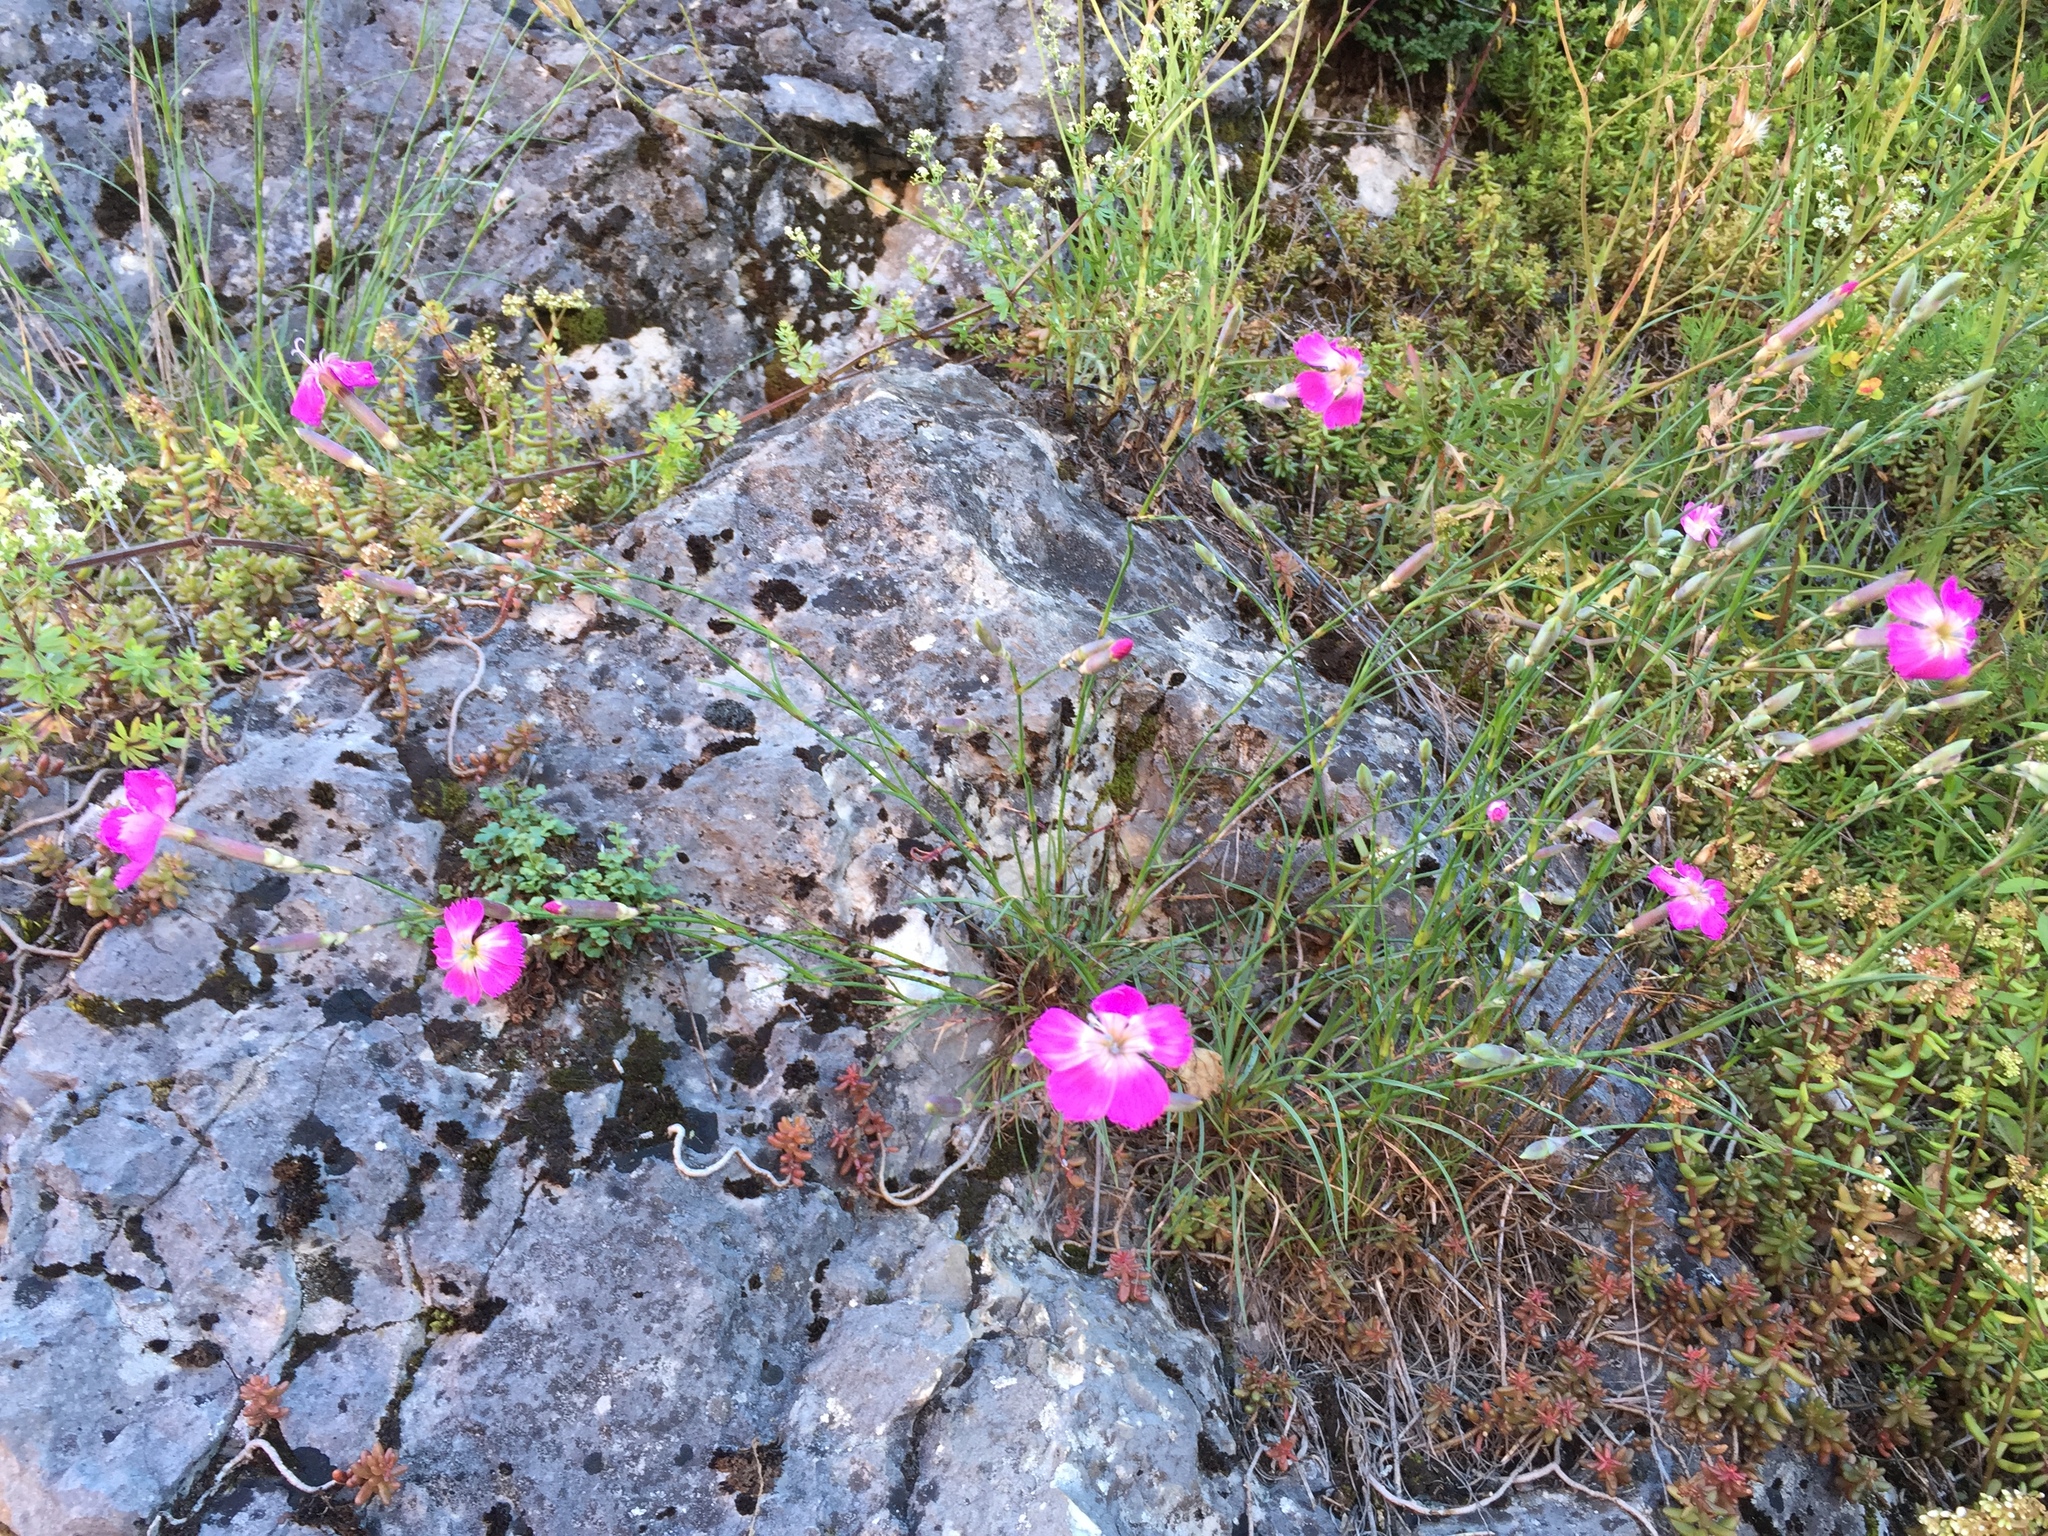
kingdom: Plantae
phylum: Tracheophyta
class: Magnoliopsida
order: Caryophyllales
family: Caryophyllaceae
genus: Dianthus
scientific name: Dianthus sylvestris
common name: Wood pink
